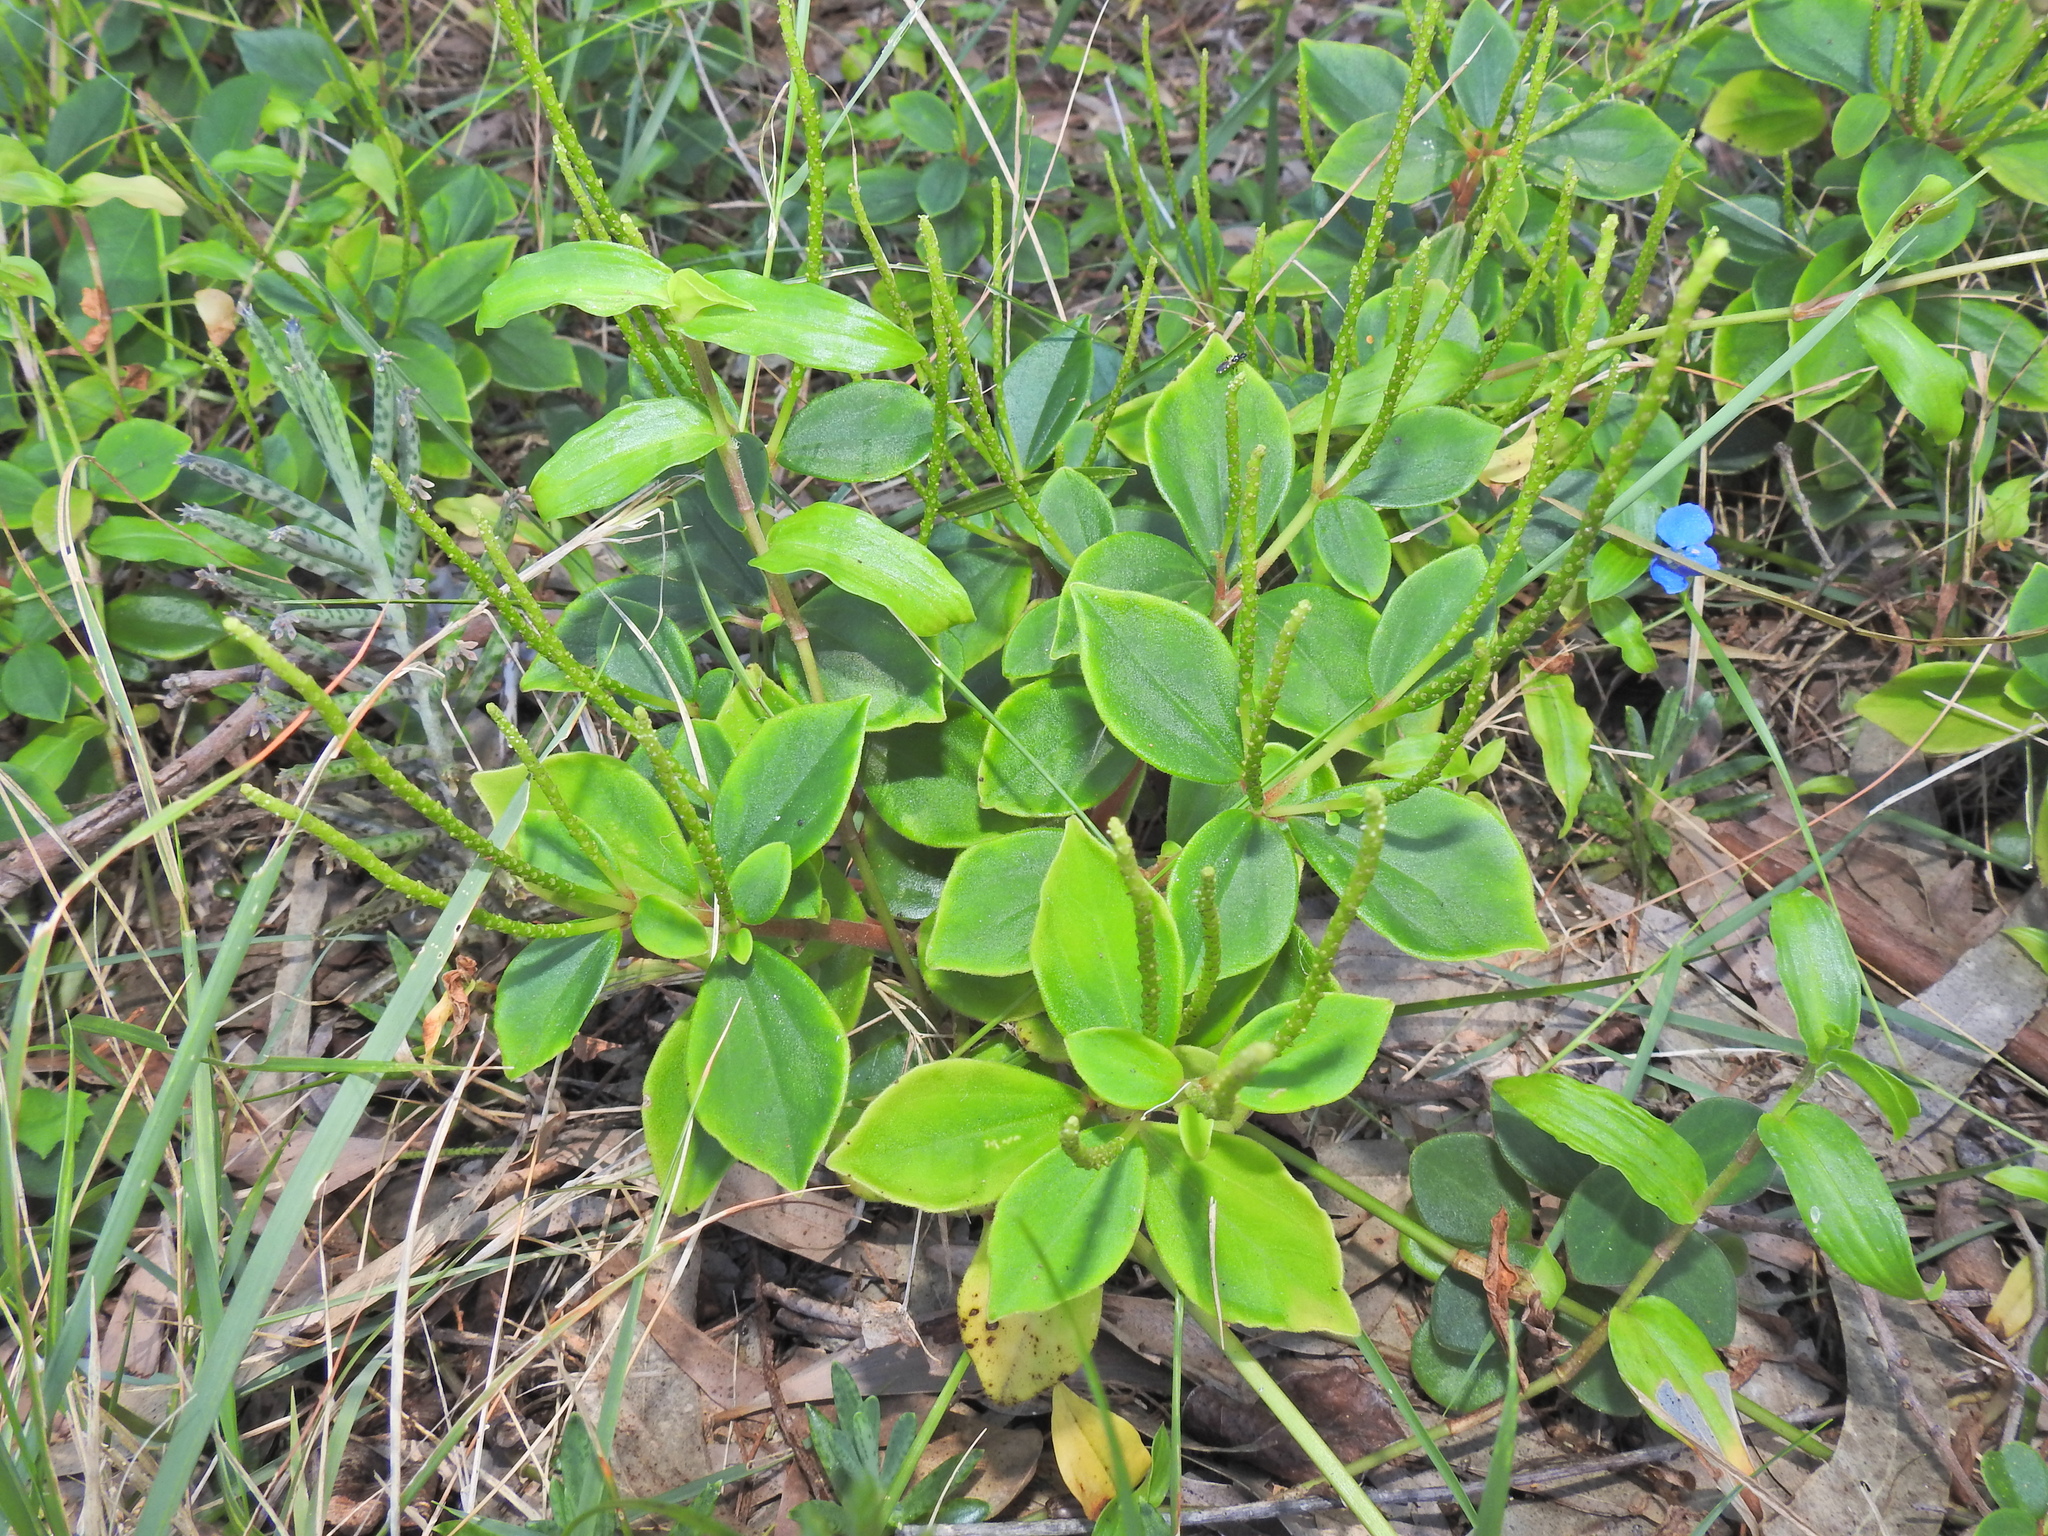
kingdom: Plantae
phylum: Tracheophyta
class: Magnoliopsida
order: Piperales
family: Piperaceae
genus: Peperomia
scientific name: Peperomia leptostachya
